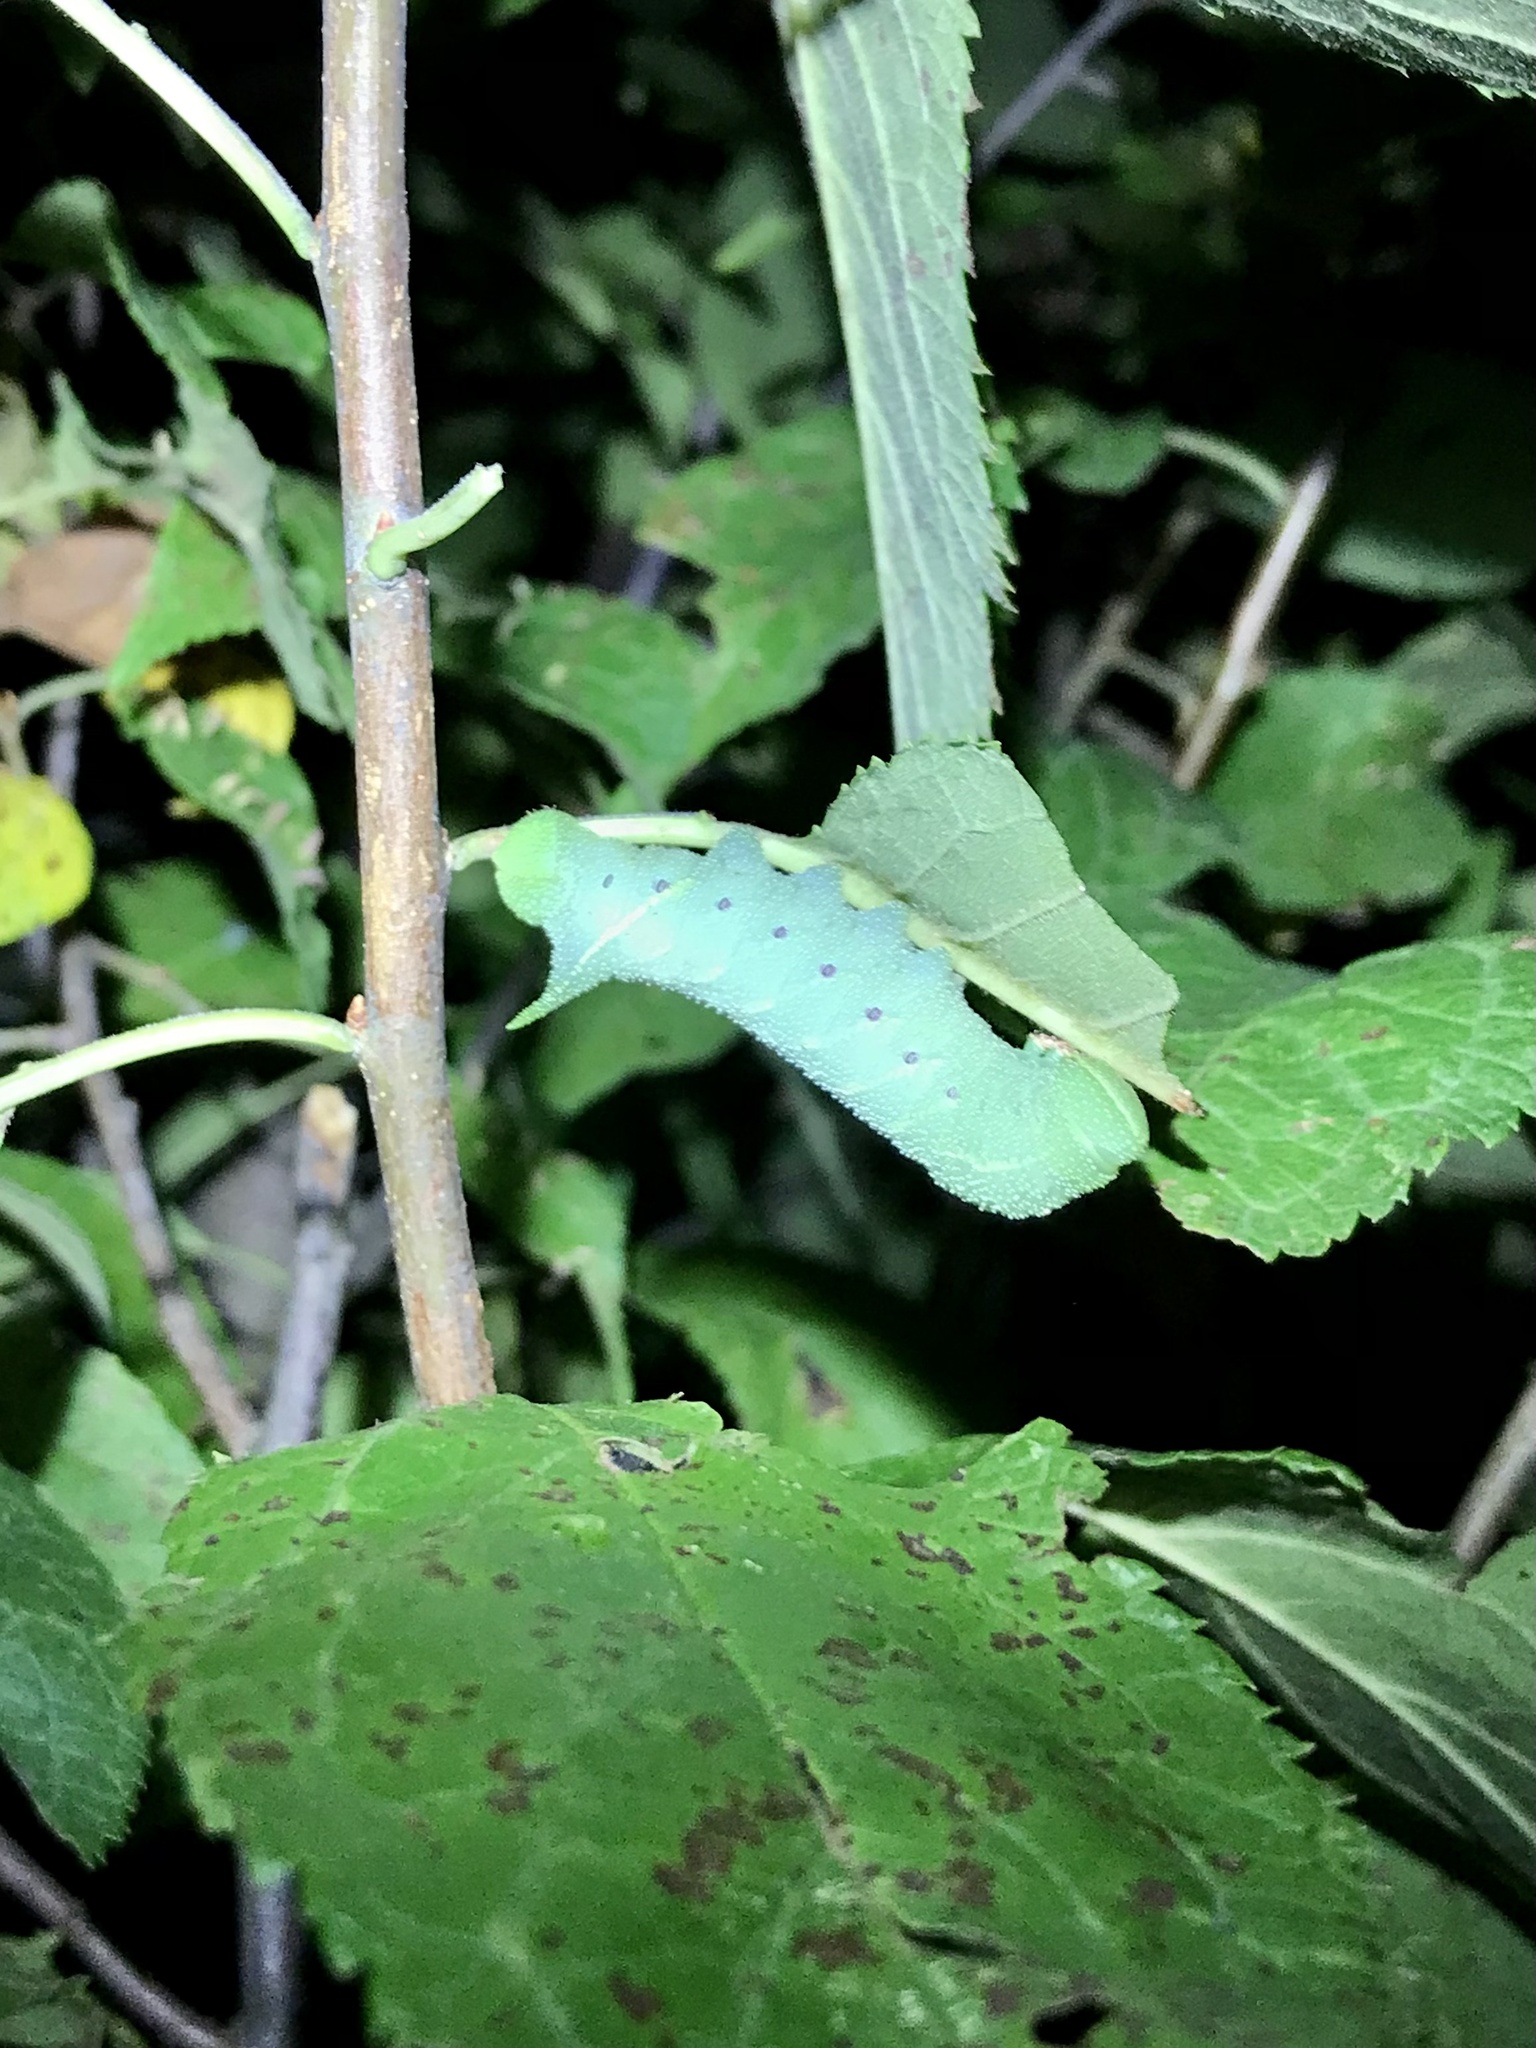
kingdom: Animalia
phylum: Arthropoda
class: Insecta
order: Lepidoptera
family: Sphingidae
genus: Paonias
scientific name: Paonias excaecata
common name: Blind-eyed sphinx
